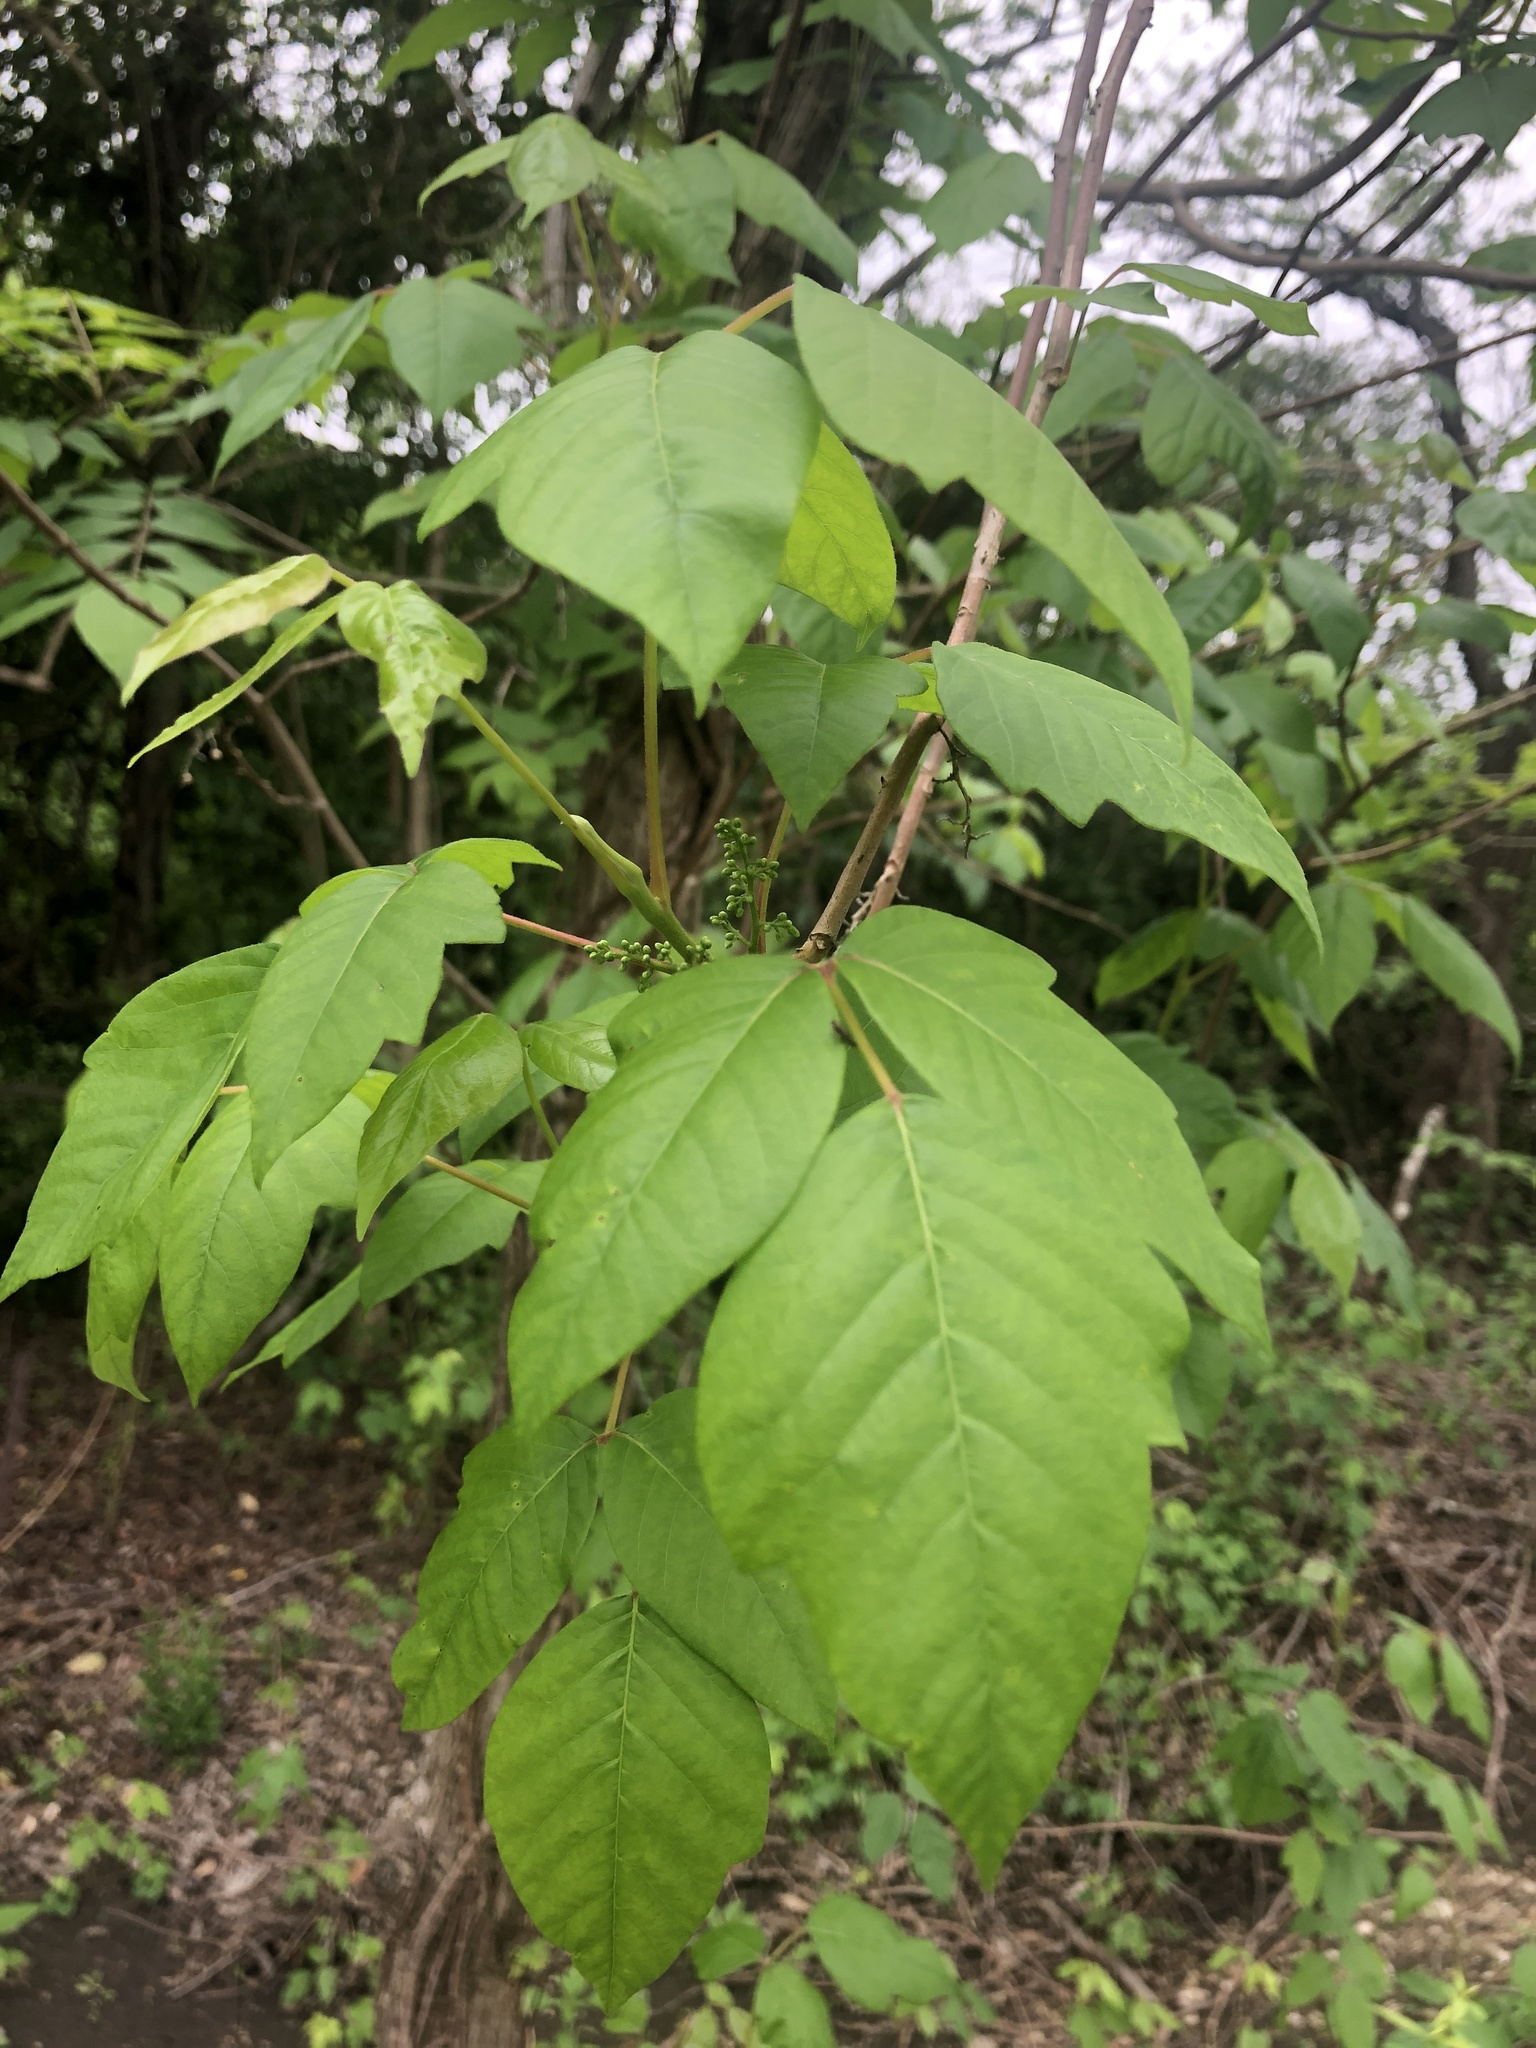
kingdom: Plantae
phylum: Tracheophyta
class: Magnoliopsida
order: Sapindales
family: Anacardiaceae
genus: Toxicodendron
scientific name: Toxicodendron radicans
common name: Poison ivy
